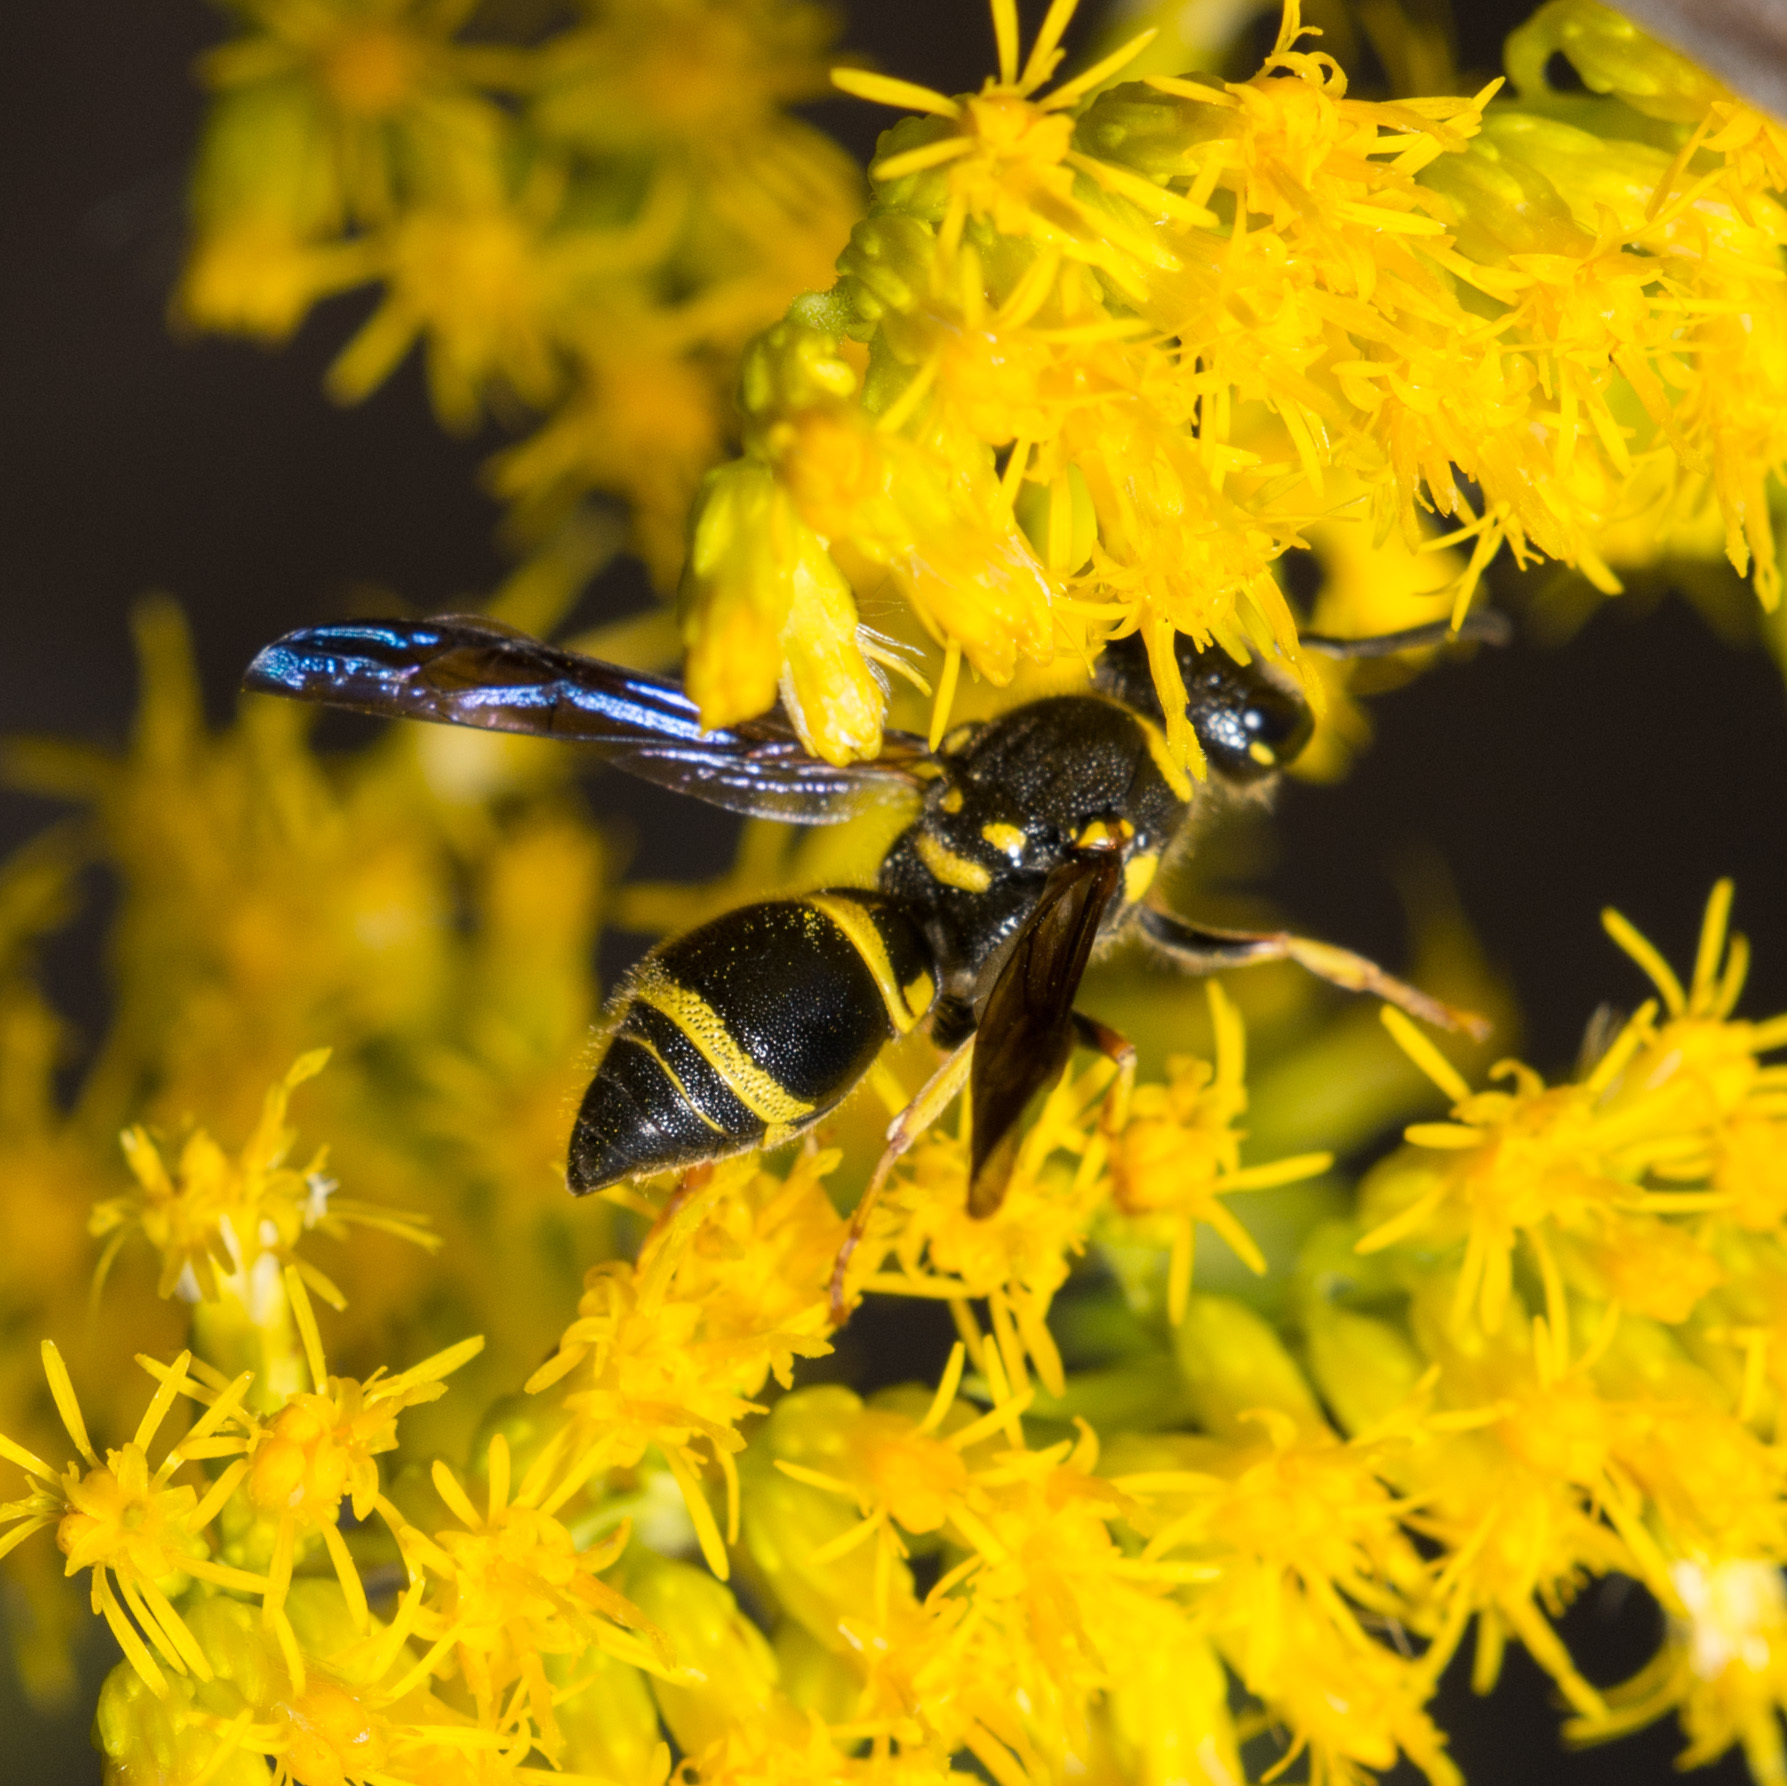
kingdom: Animalia
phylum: Arthropoda
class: Insecta
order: Hymenoptera
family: Vespidae
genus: Ancistrocerus
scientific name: Ancistrocerus campestris
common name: Smiling mason wasp
